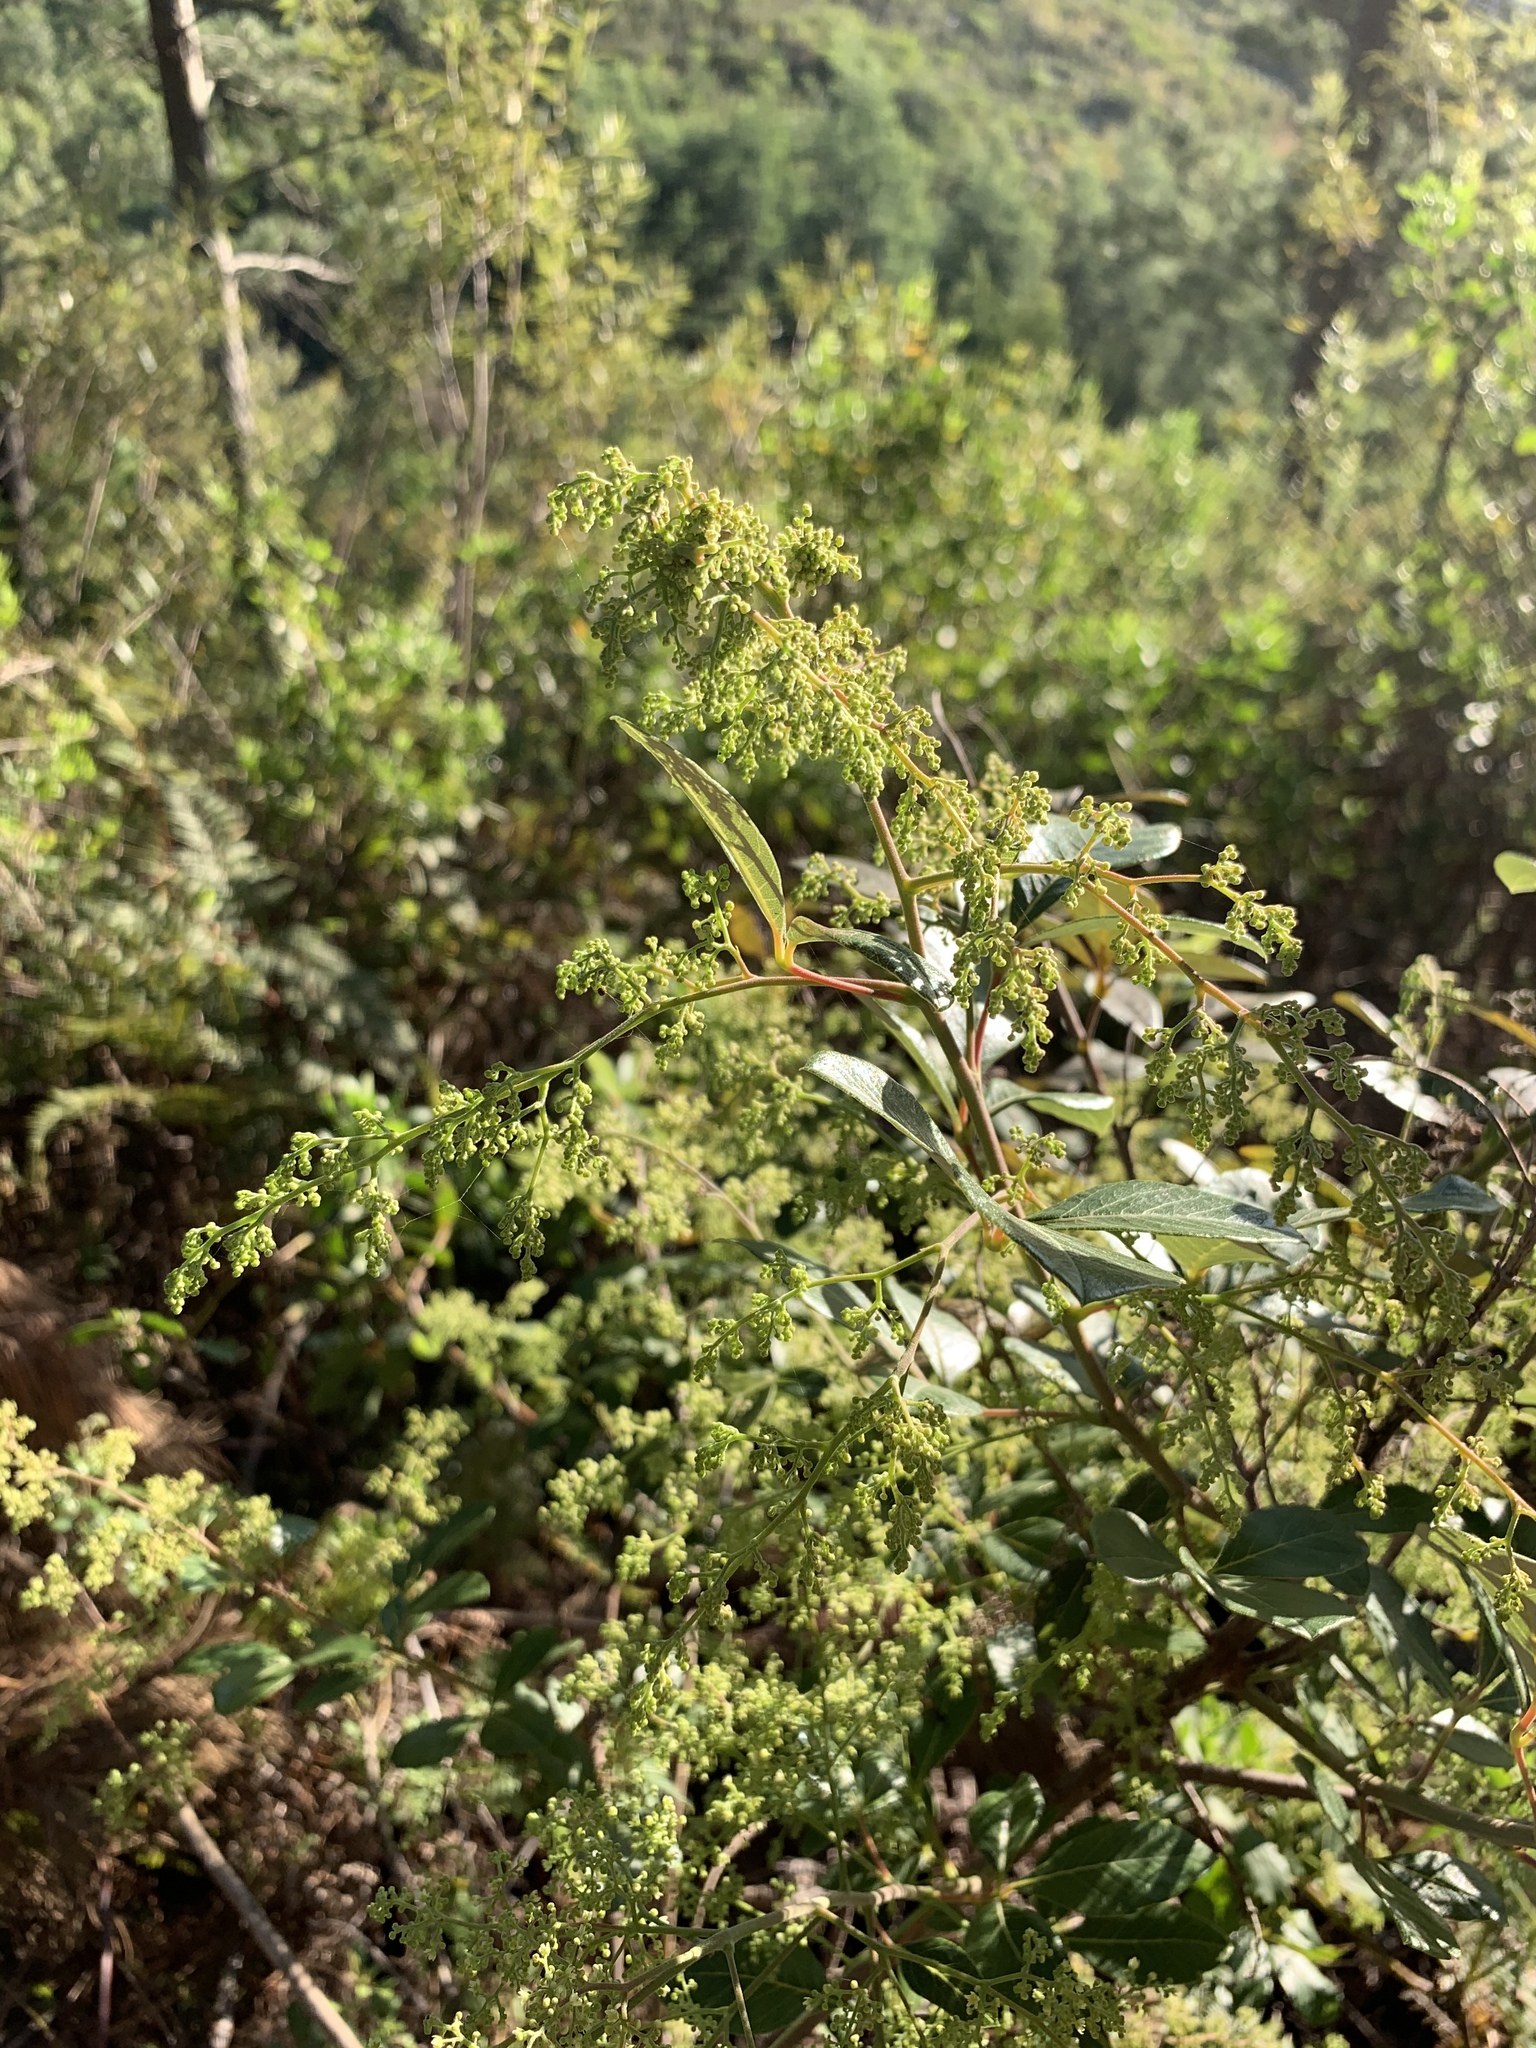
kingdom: Plantae
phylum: Tracheophyta
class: Magnoliopsida
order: Sapindales
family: Anacardiaceae
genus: Searsia
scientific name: Searsia tomentosa
